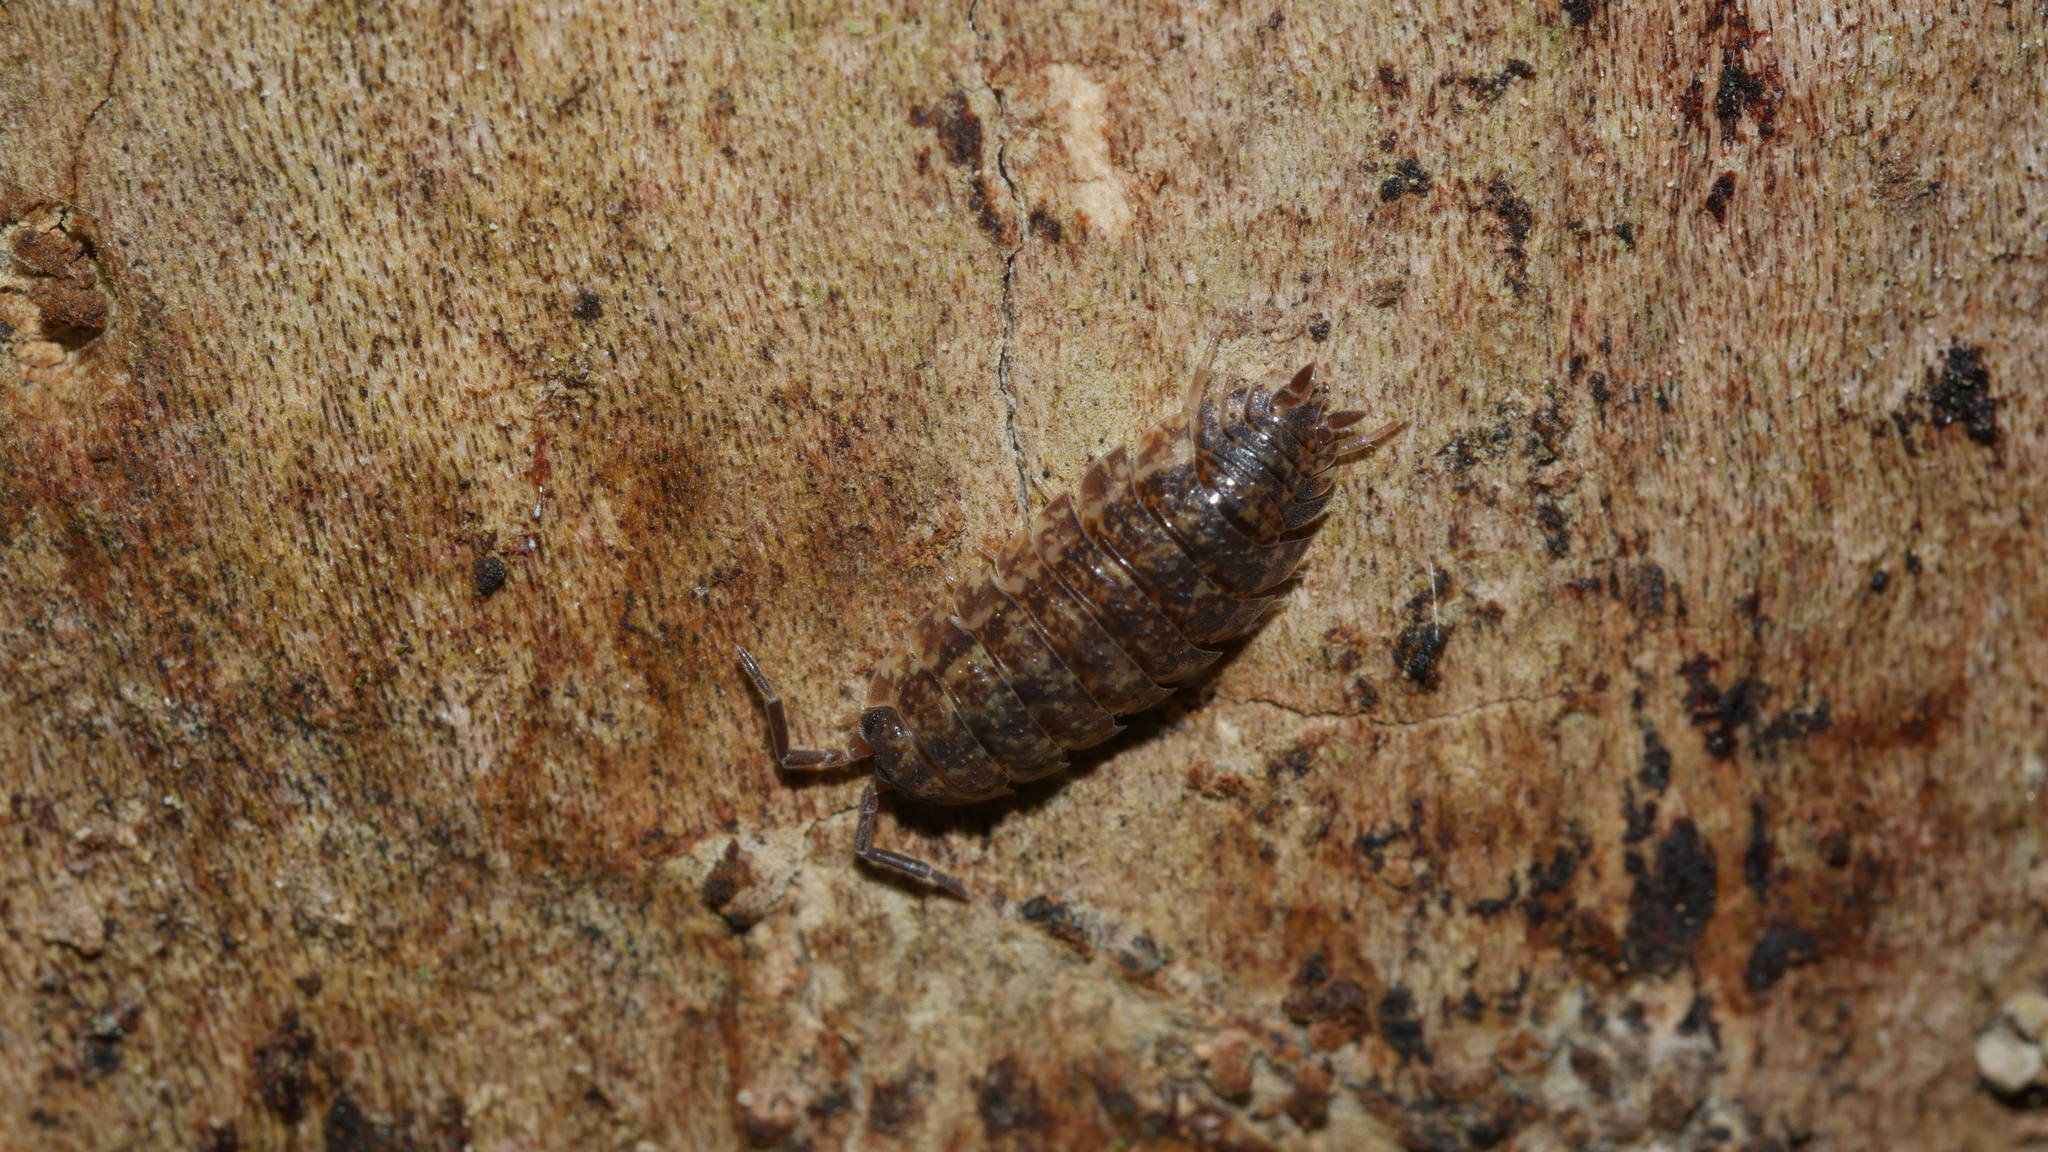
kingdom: Animalia
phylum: Arthropoda
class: Malacostraca
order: Isopoda
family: Porcellionidae
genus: Porcellio
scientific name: Porcellio scaber
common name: Common rough woodlouse
